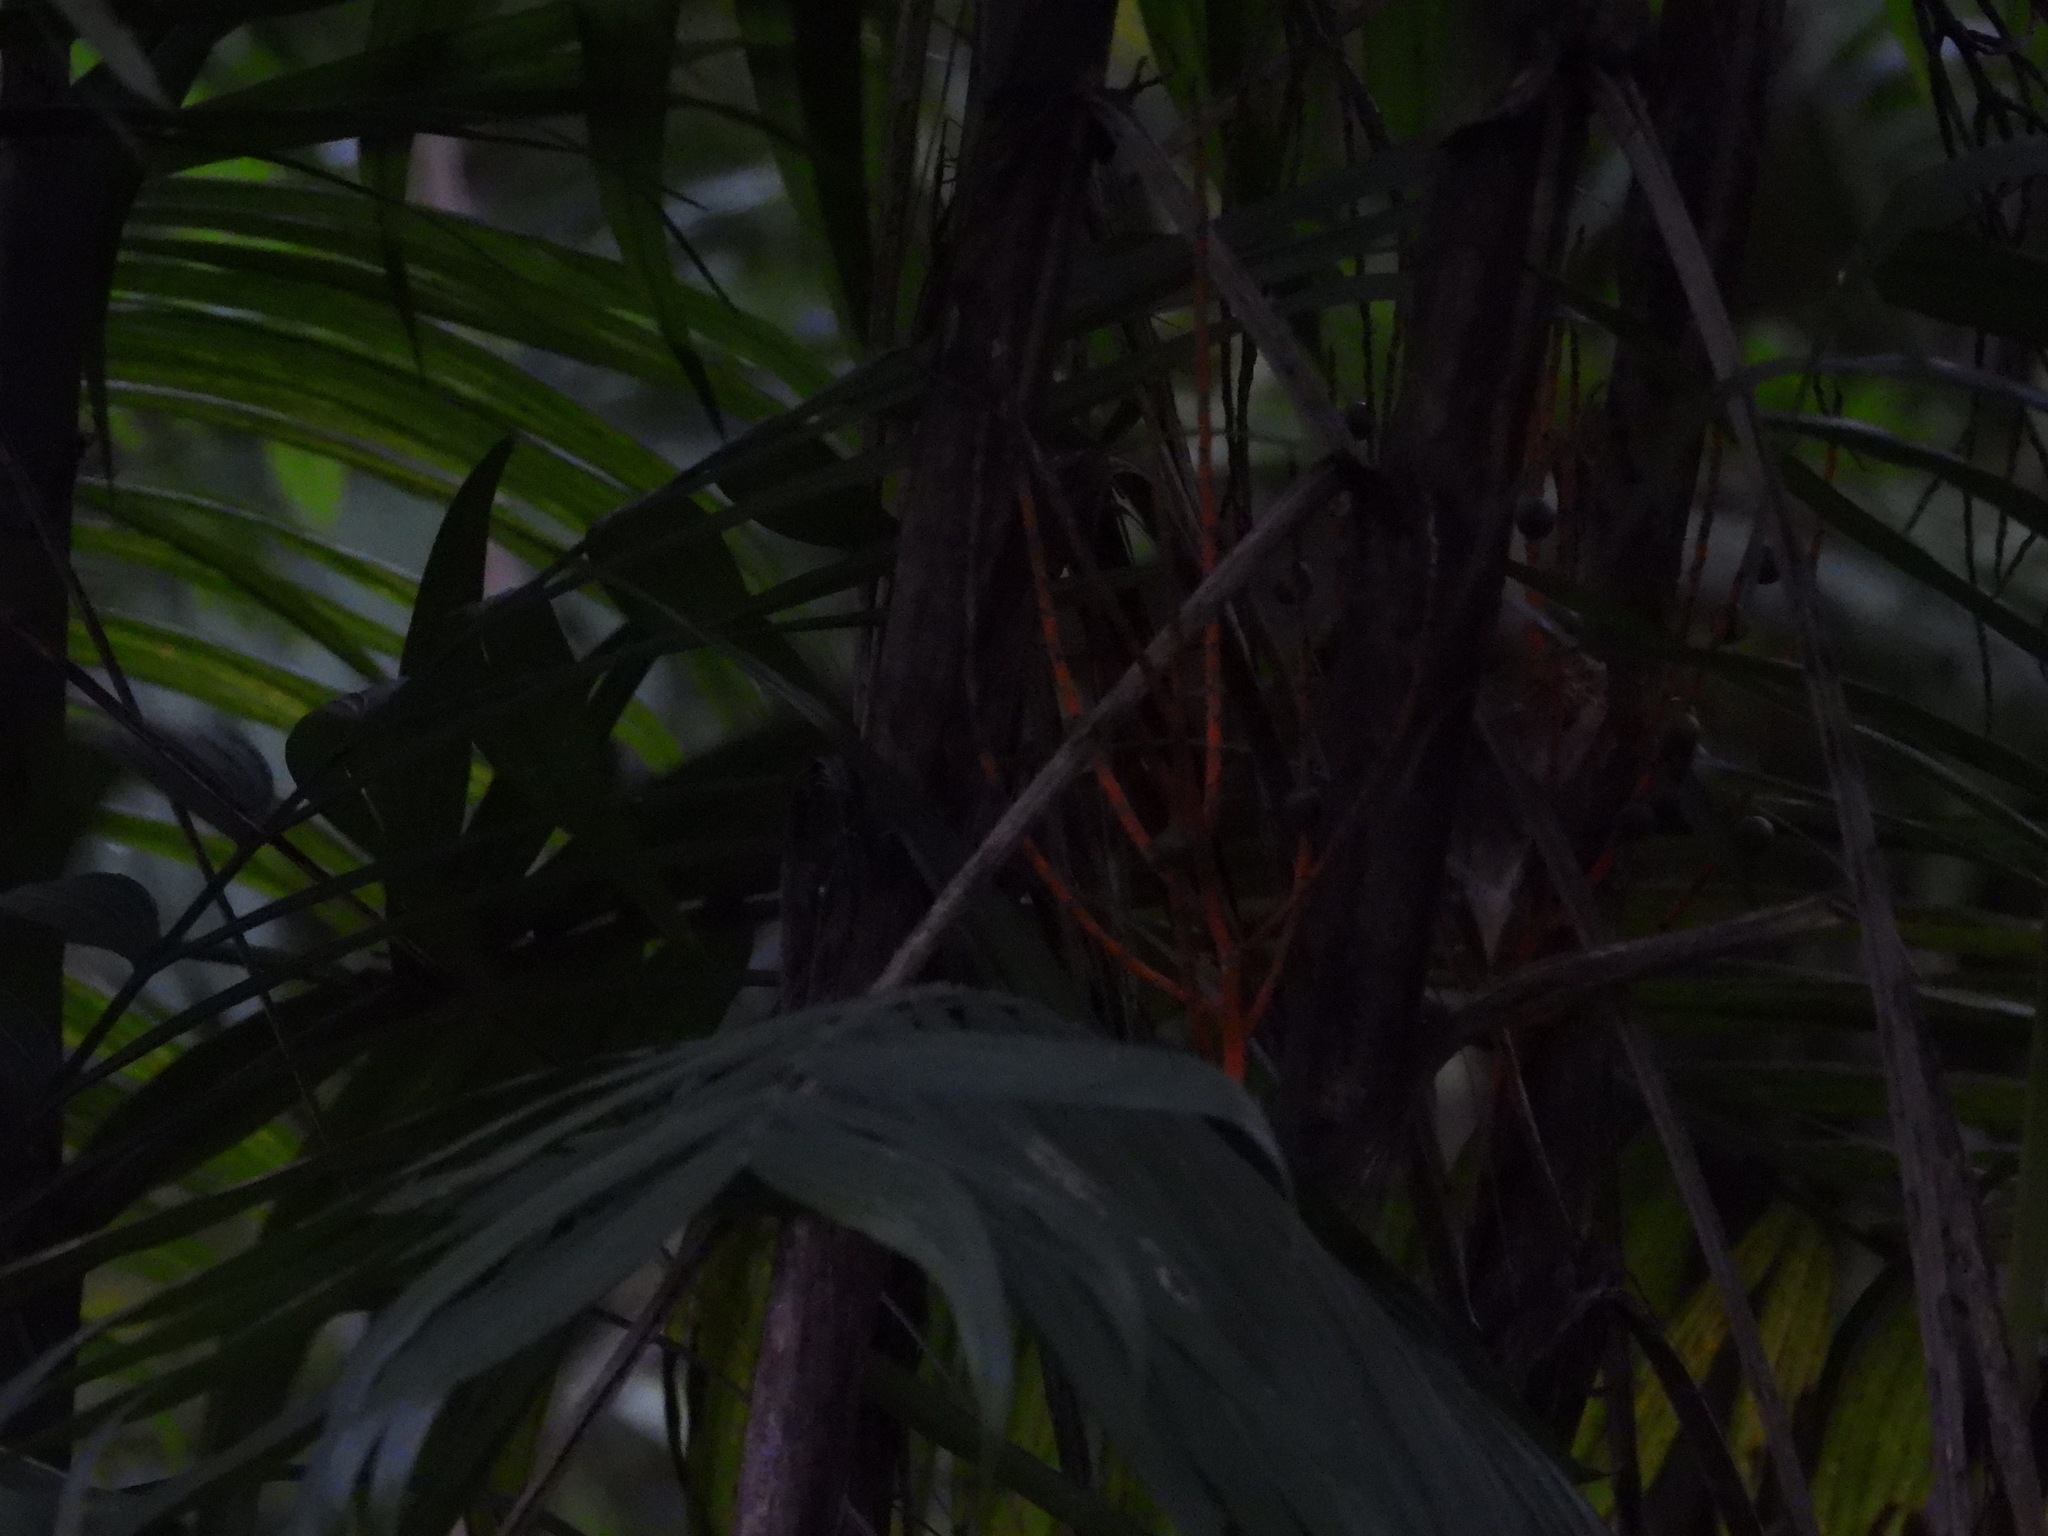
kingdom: Plantae
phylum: Tracheophyta
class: Liliopsida
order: Arecales
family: Arecaceae
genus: Chamaedorea
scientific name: Chamaedorea tepejilote
